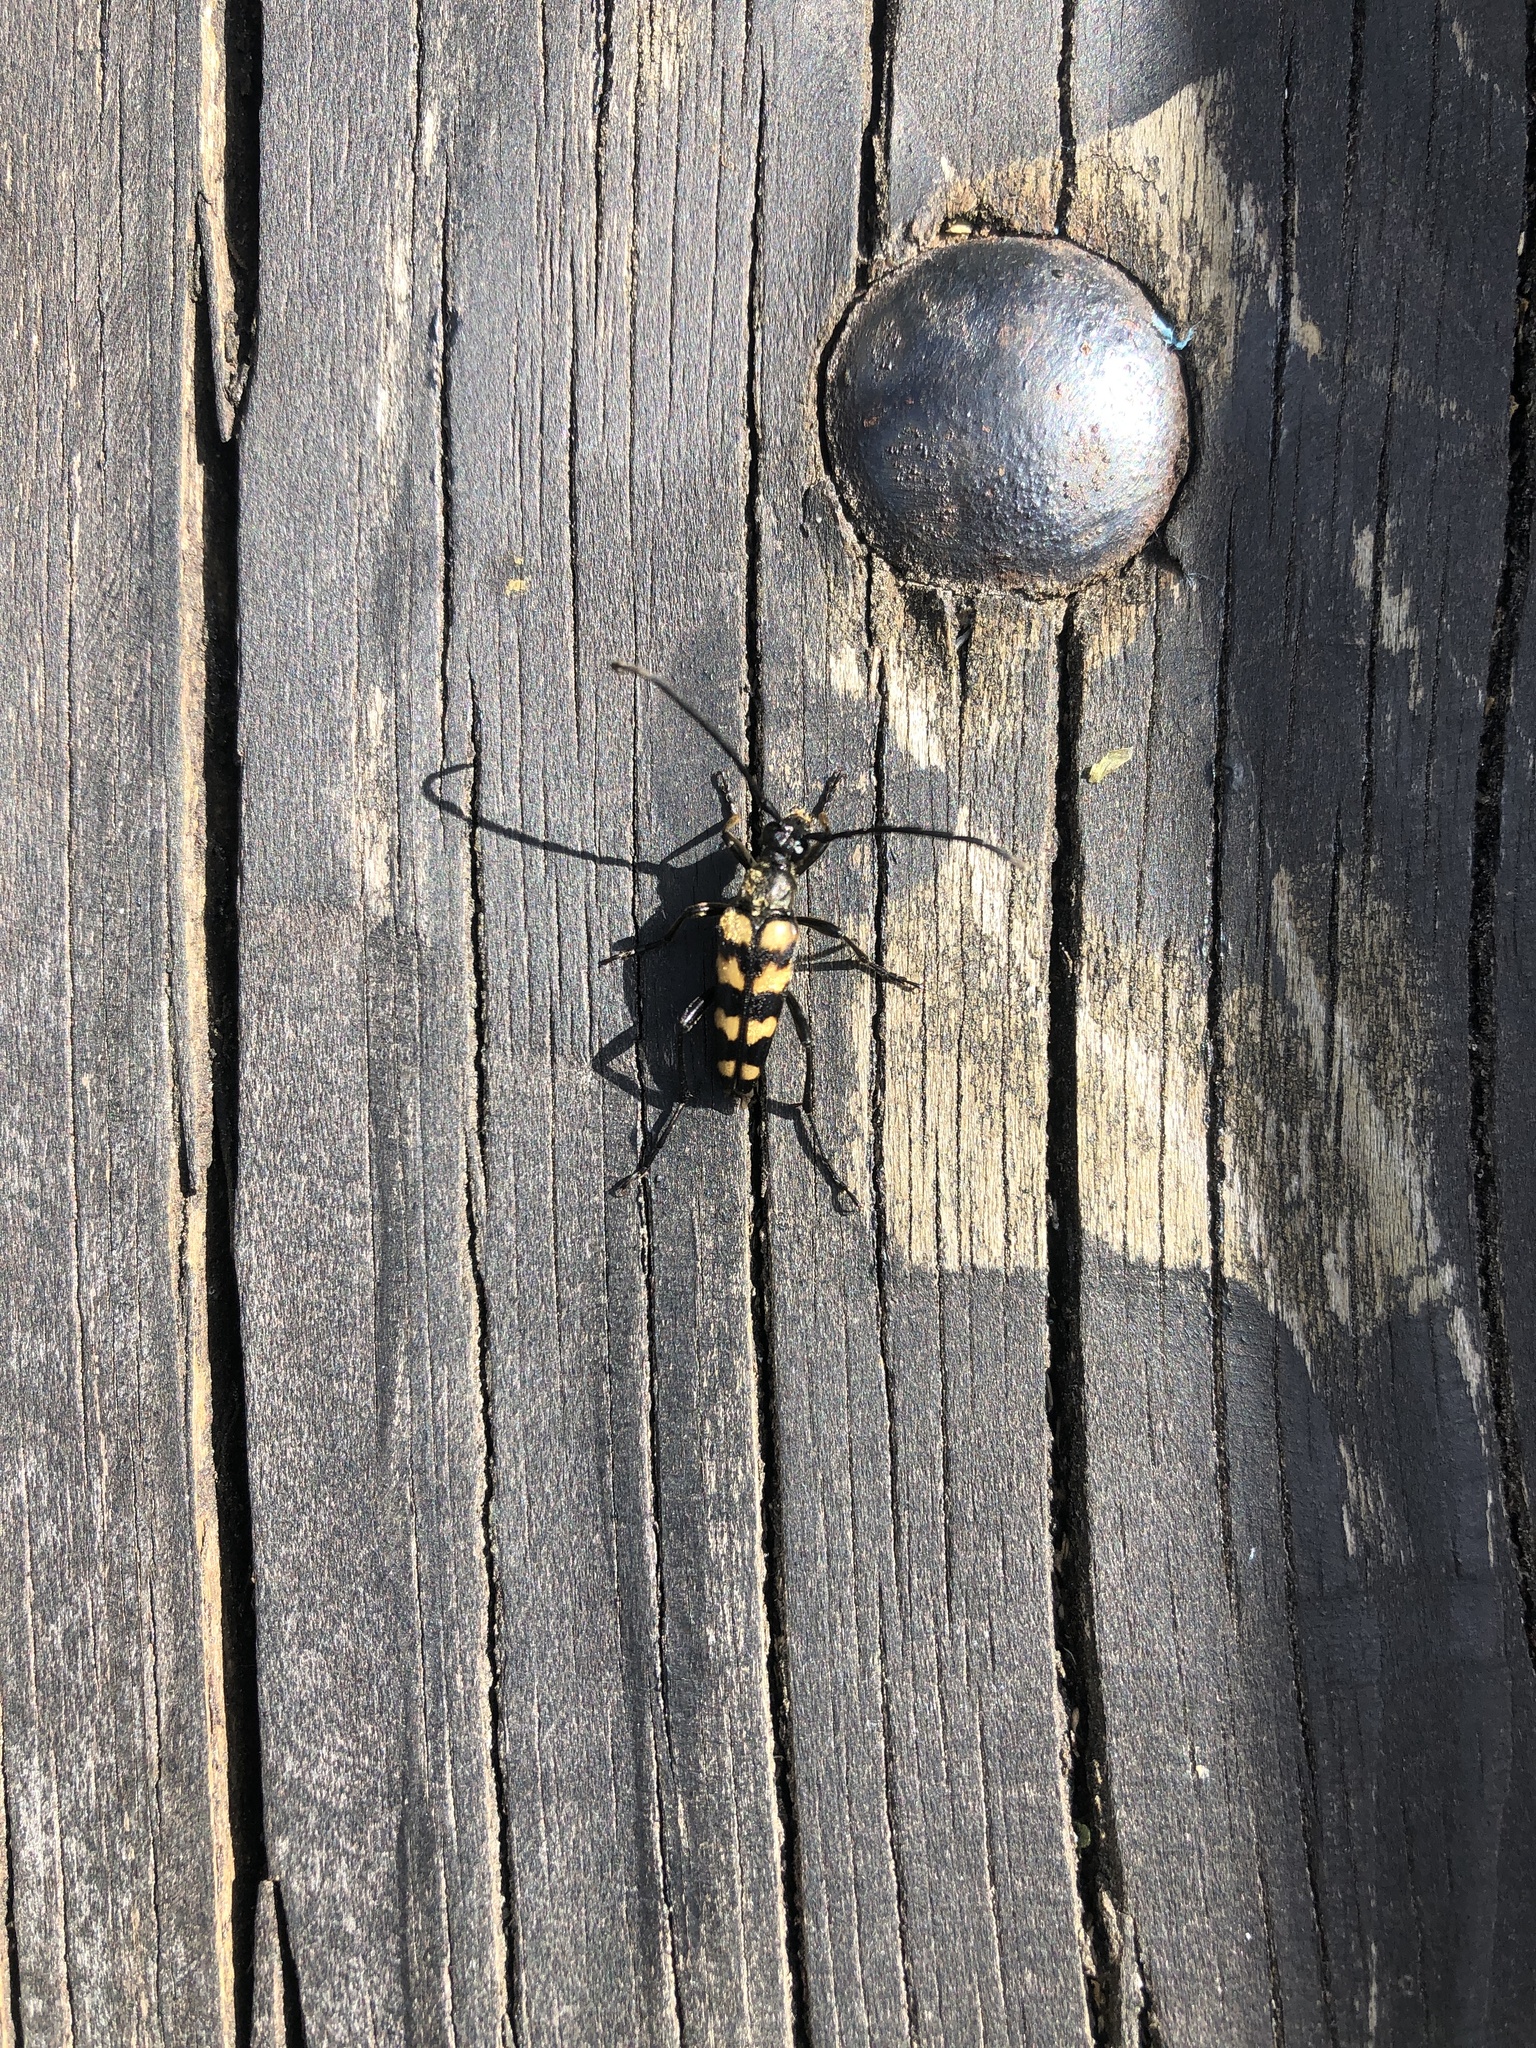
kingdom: Animalia
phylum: Arthropoda
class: Insecta
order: Coleoptera
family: Cerambycidae
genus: Leptura
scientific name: Leptura quadrifasciata
